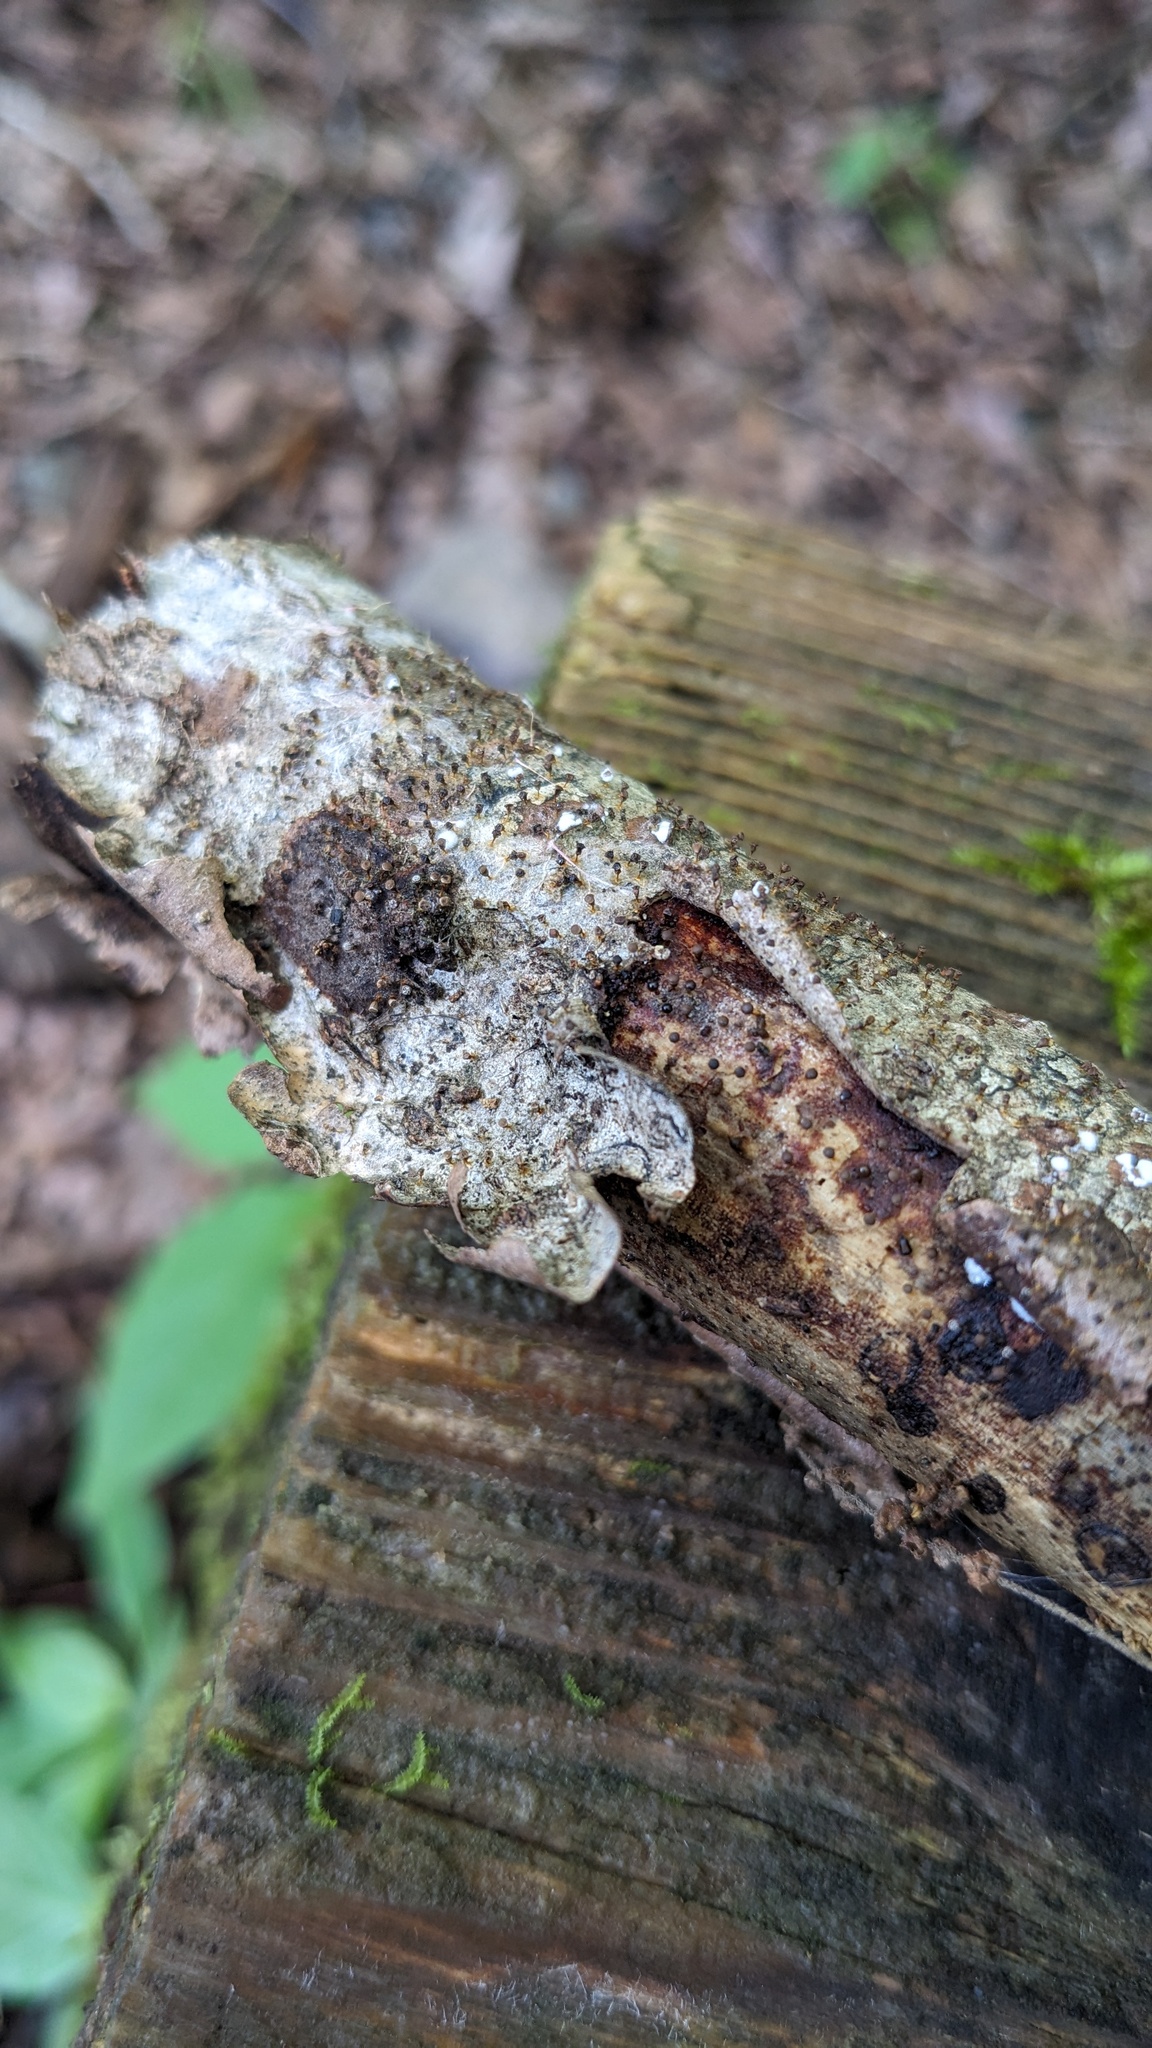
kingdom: Protozoa
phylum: Mycetozoa
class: Myxomycetes
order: Physarales
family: Physaraceae
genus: Craterium
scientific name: Craterium minutum
